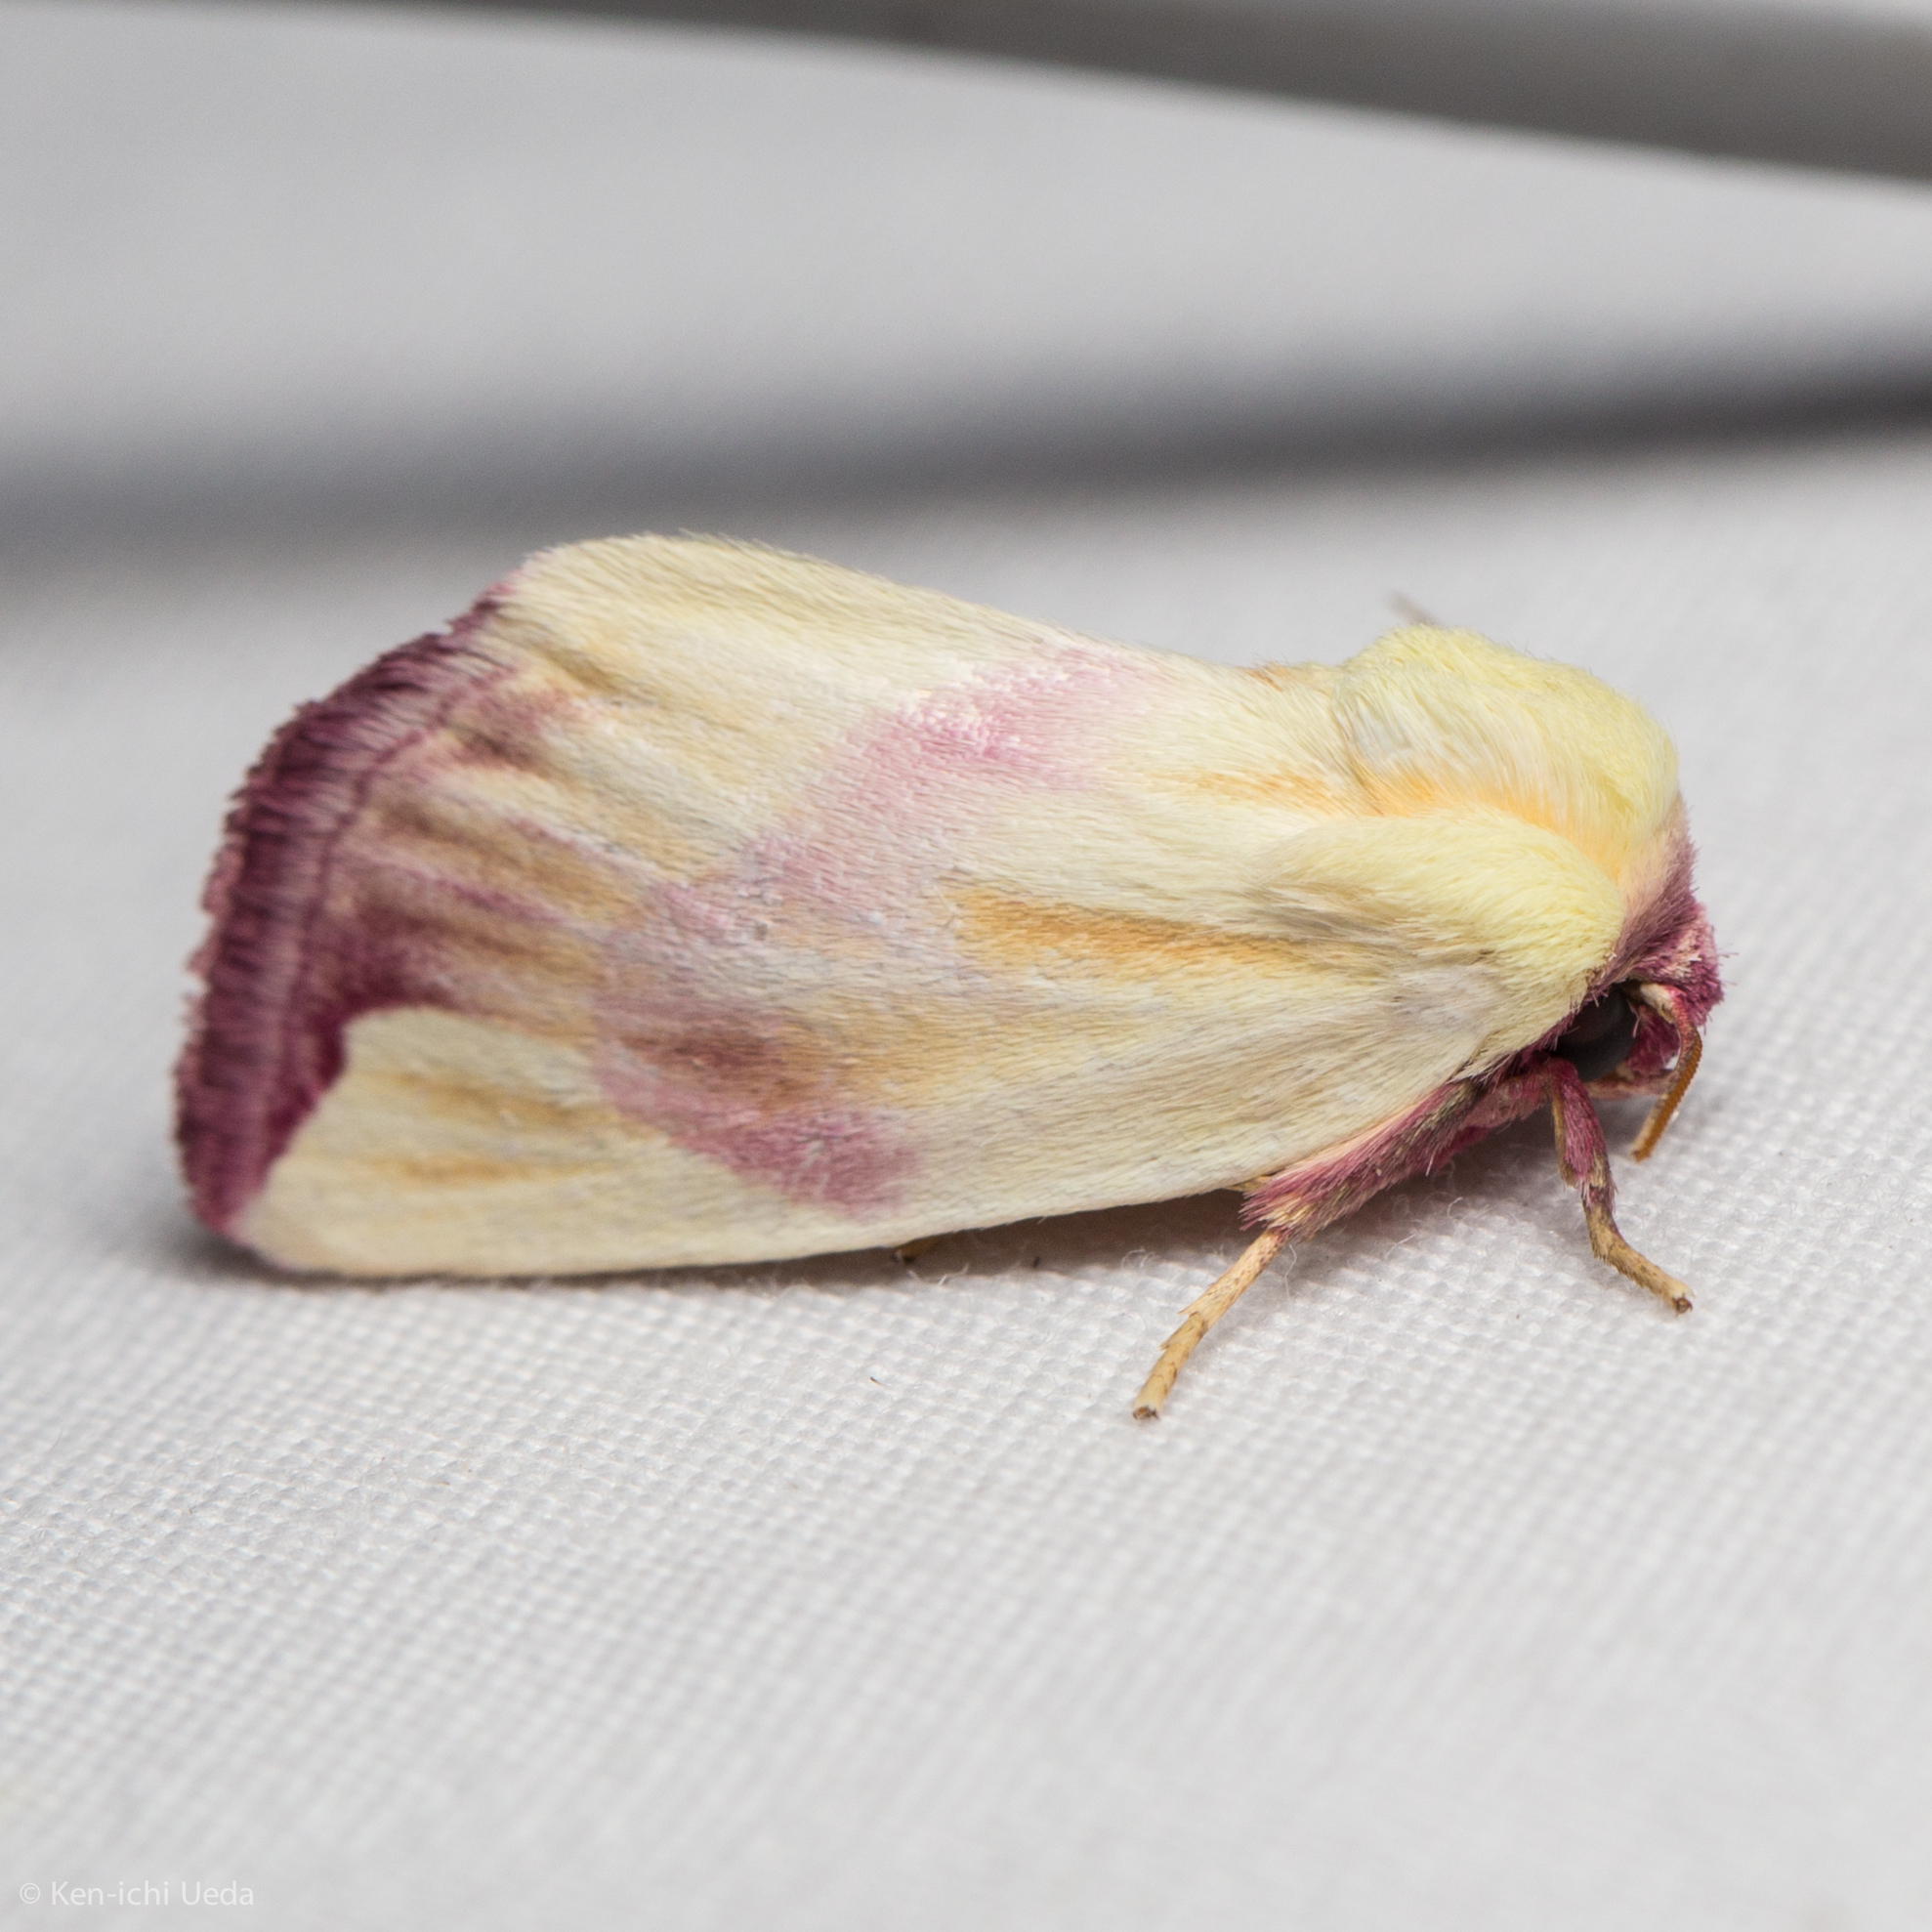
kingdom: Animalia
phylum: Arthropoda
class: Insecta
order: Lepidoptera
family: Noctuidae
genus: Thurberiphaga
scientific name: Thurberiphaga diffusa
